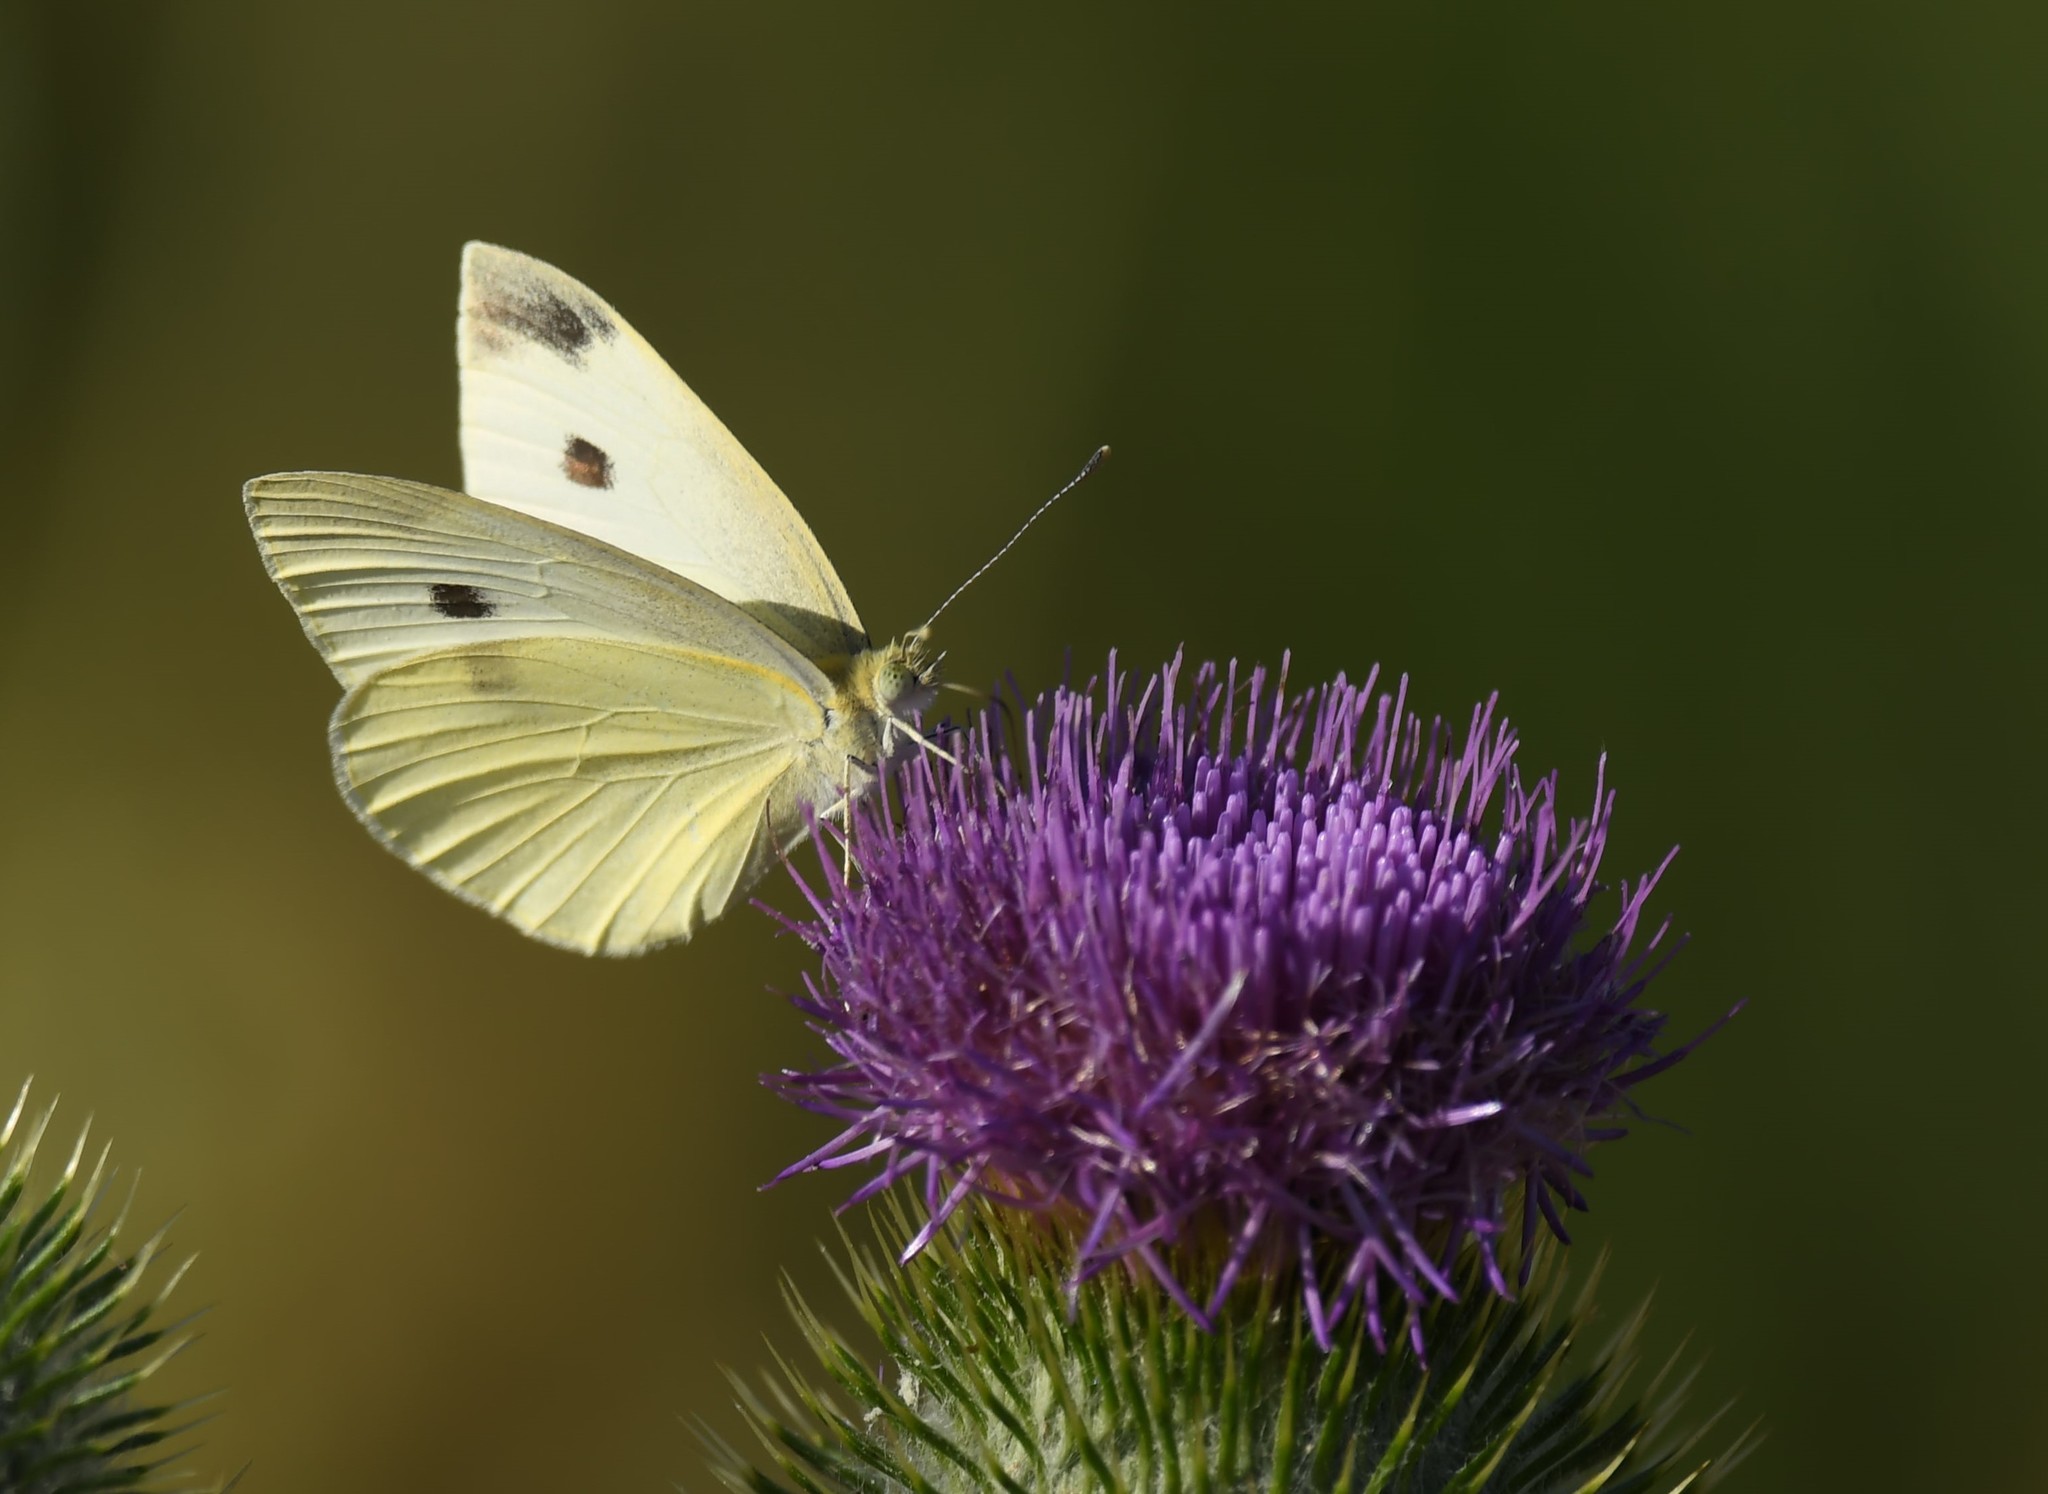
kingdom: Animalia
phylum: Arthropoda
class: Insecta
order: Lepidoptera
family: Pieridae
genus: Pieris
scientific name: Pieris rapae
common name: Small white
